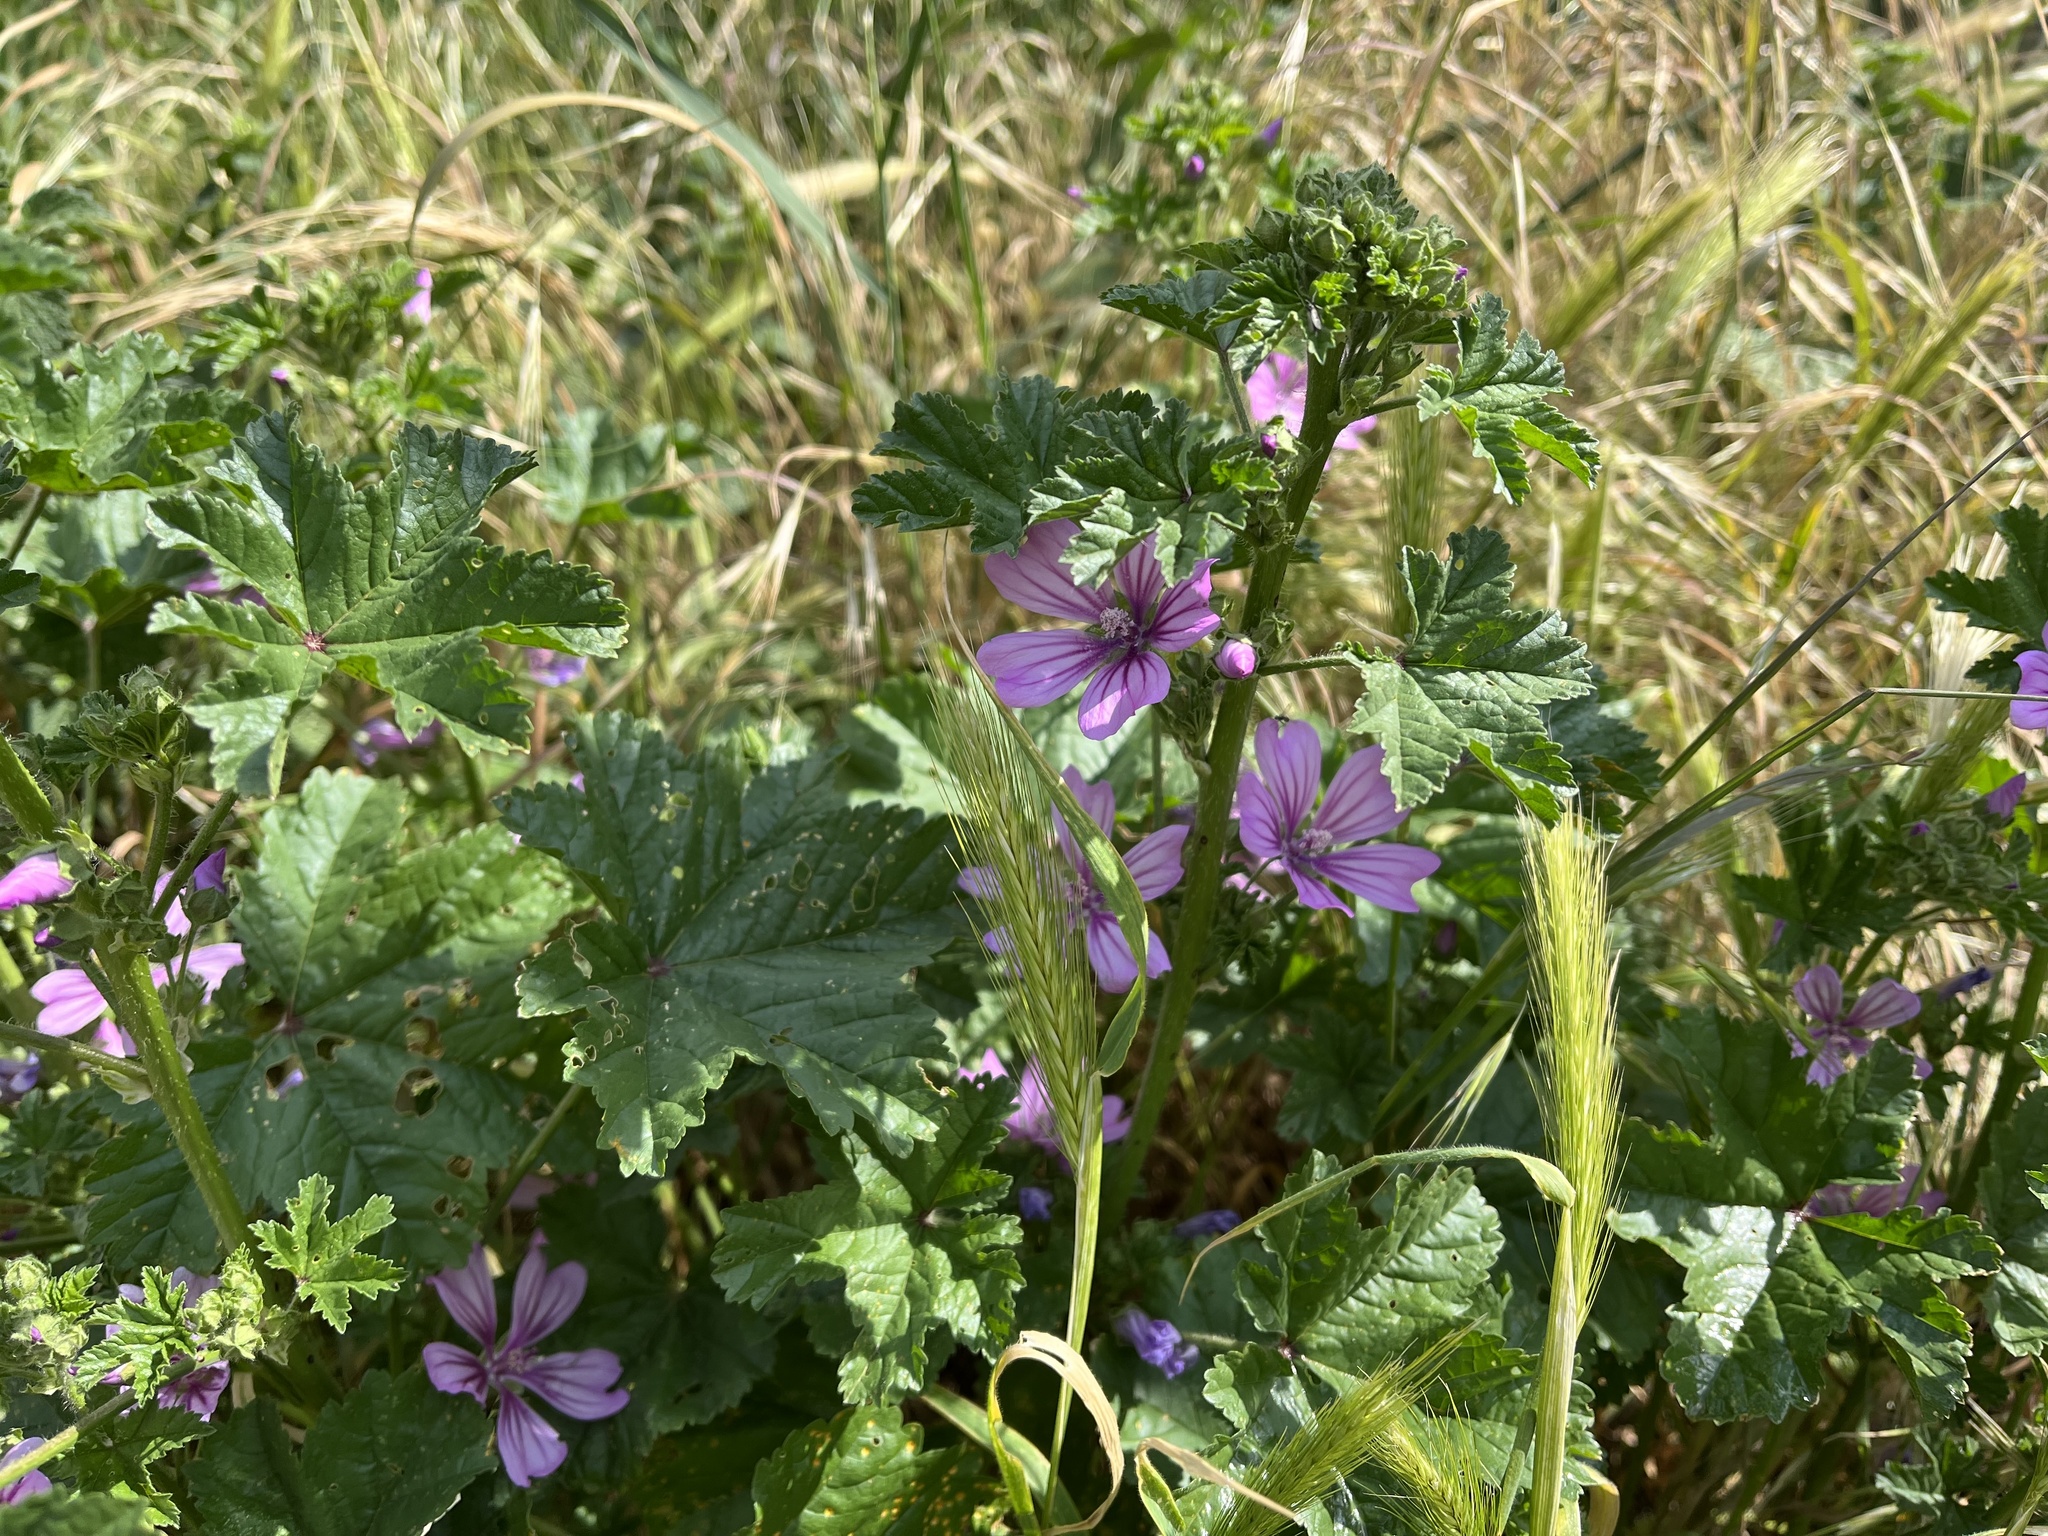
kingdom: Plantae
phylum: Tracheophyta
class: Magnoliopsida
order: Malvales
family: Malvaceae
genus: Malva
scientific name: Malva sylvestris
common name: Common mallow
